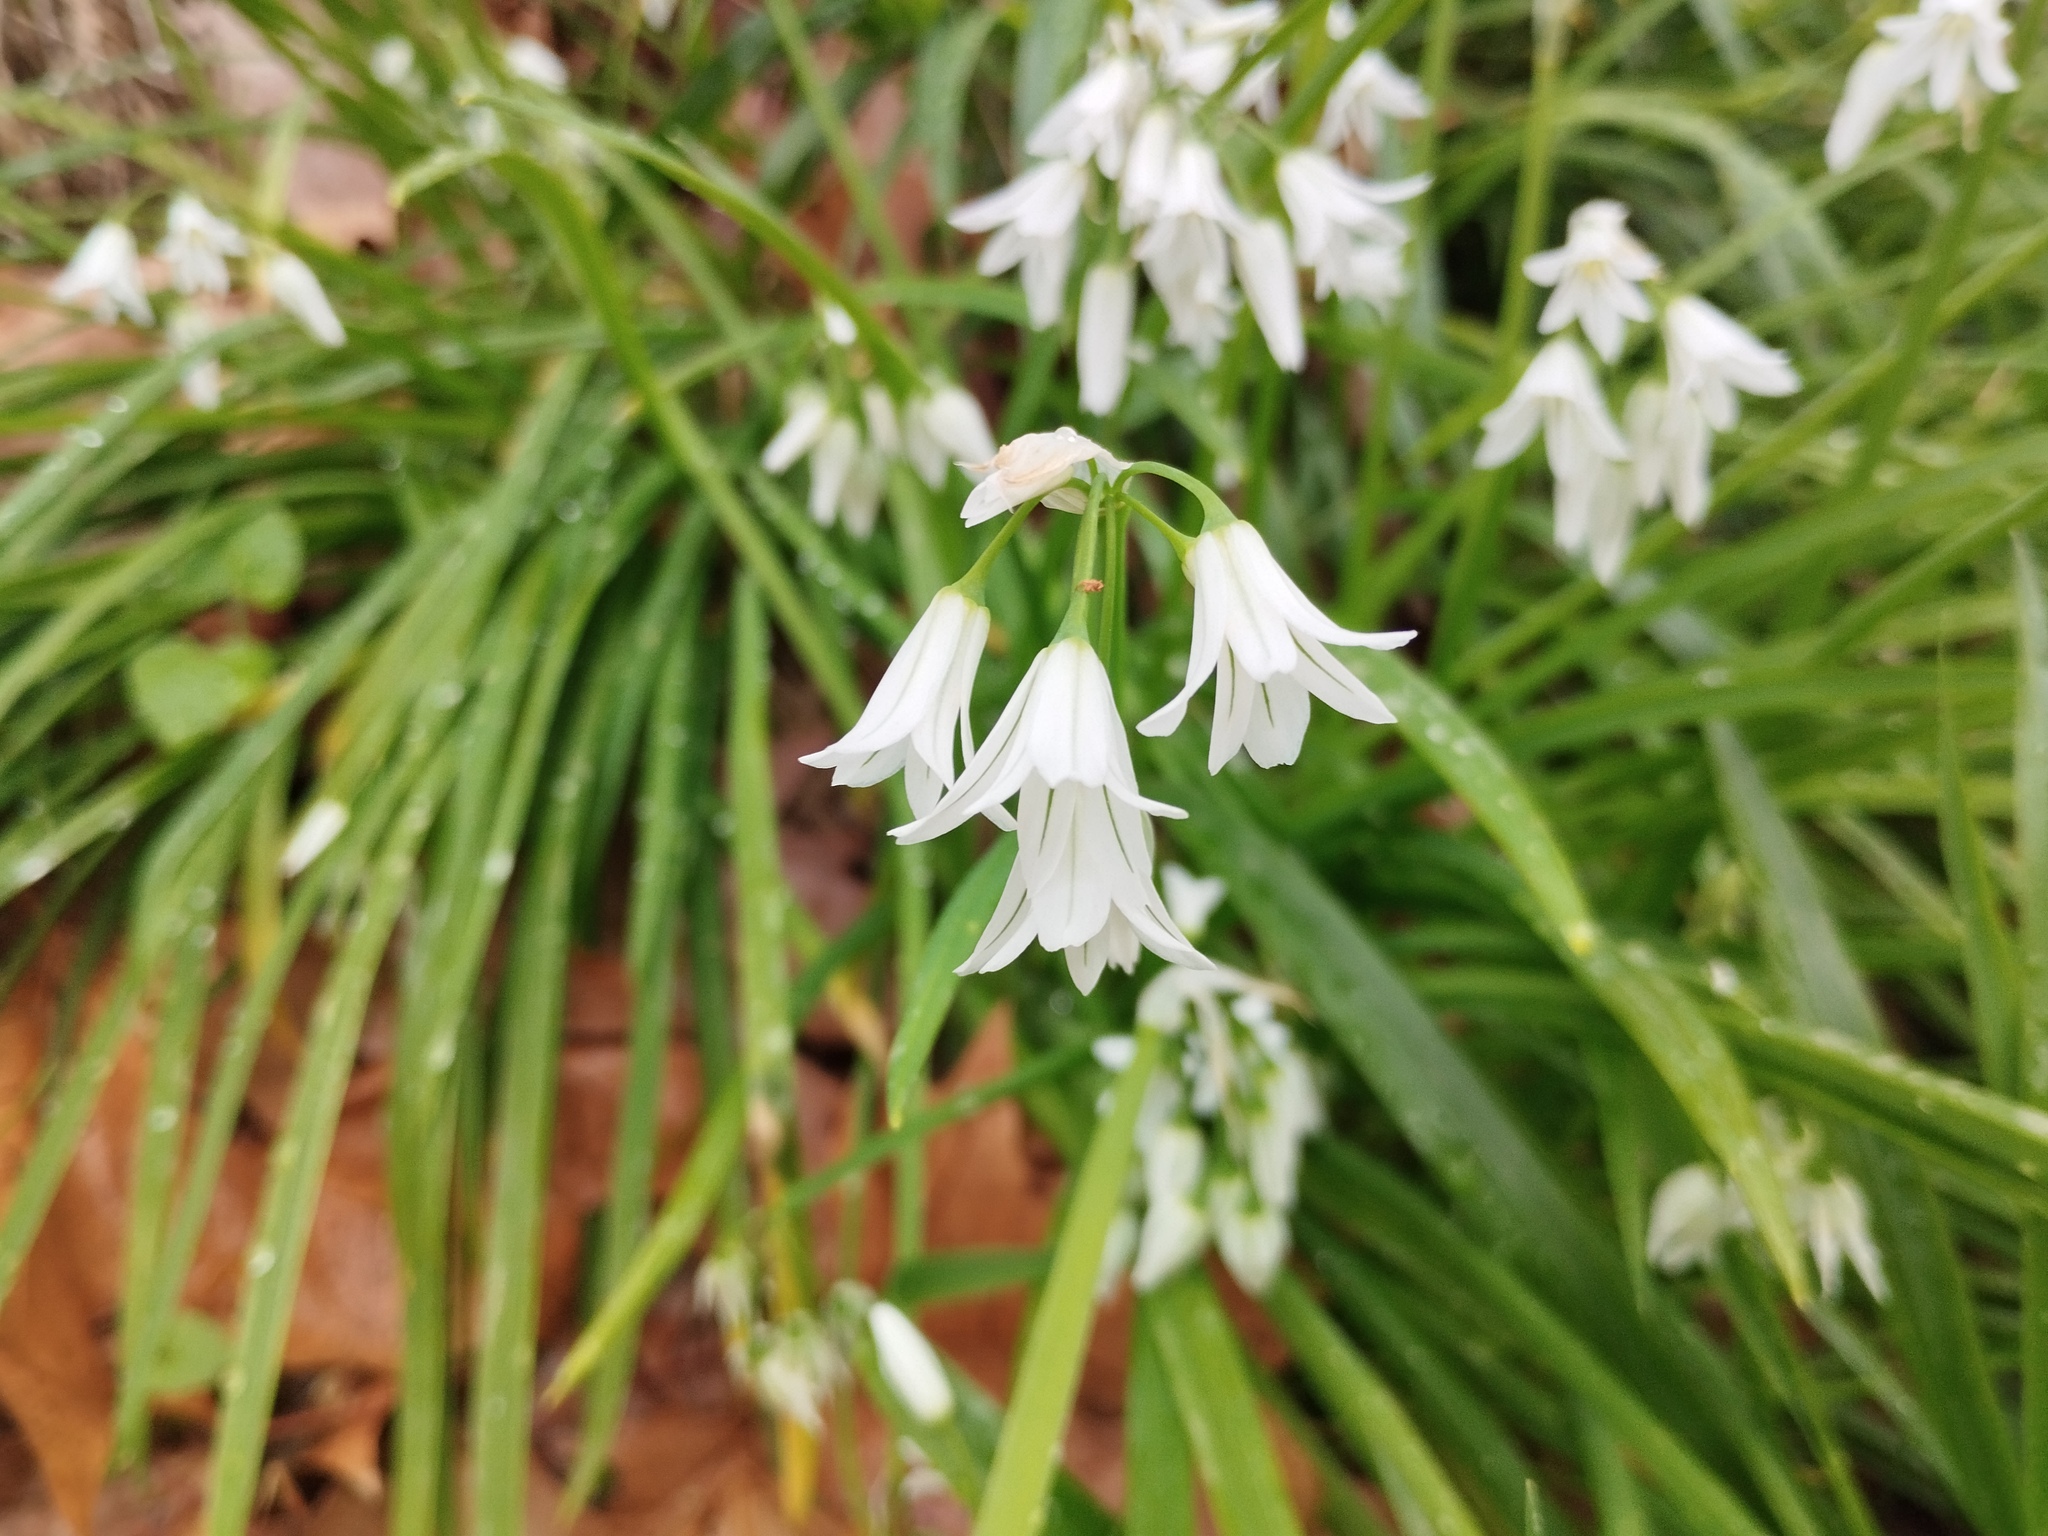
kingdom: Plantae
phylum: Tracheophyta
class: Liliopsida
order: Asparagales
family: Amaryllidaceae
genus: Allium
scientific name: Allium triquetrum
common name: Three-cornered garlic
